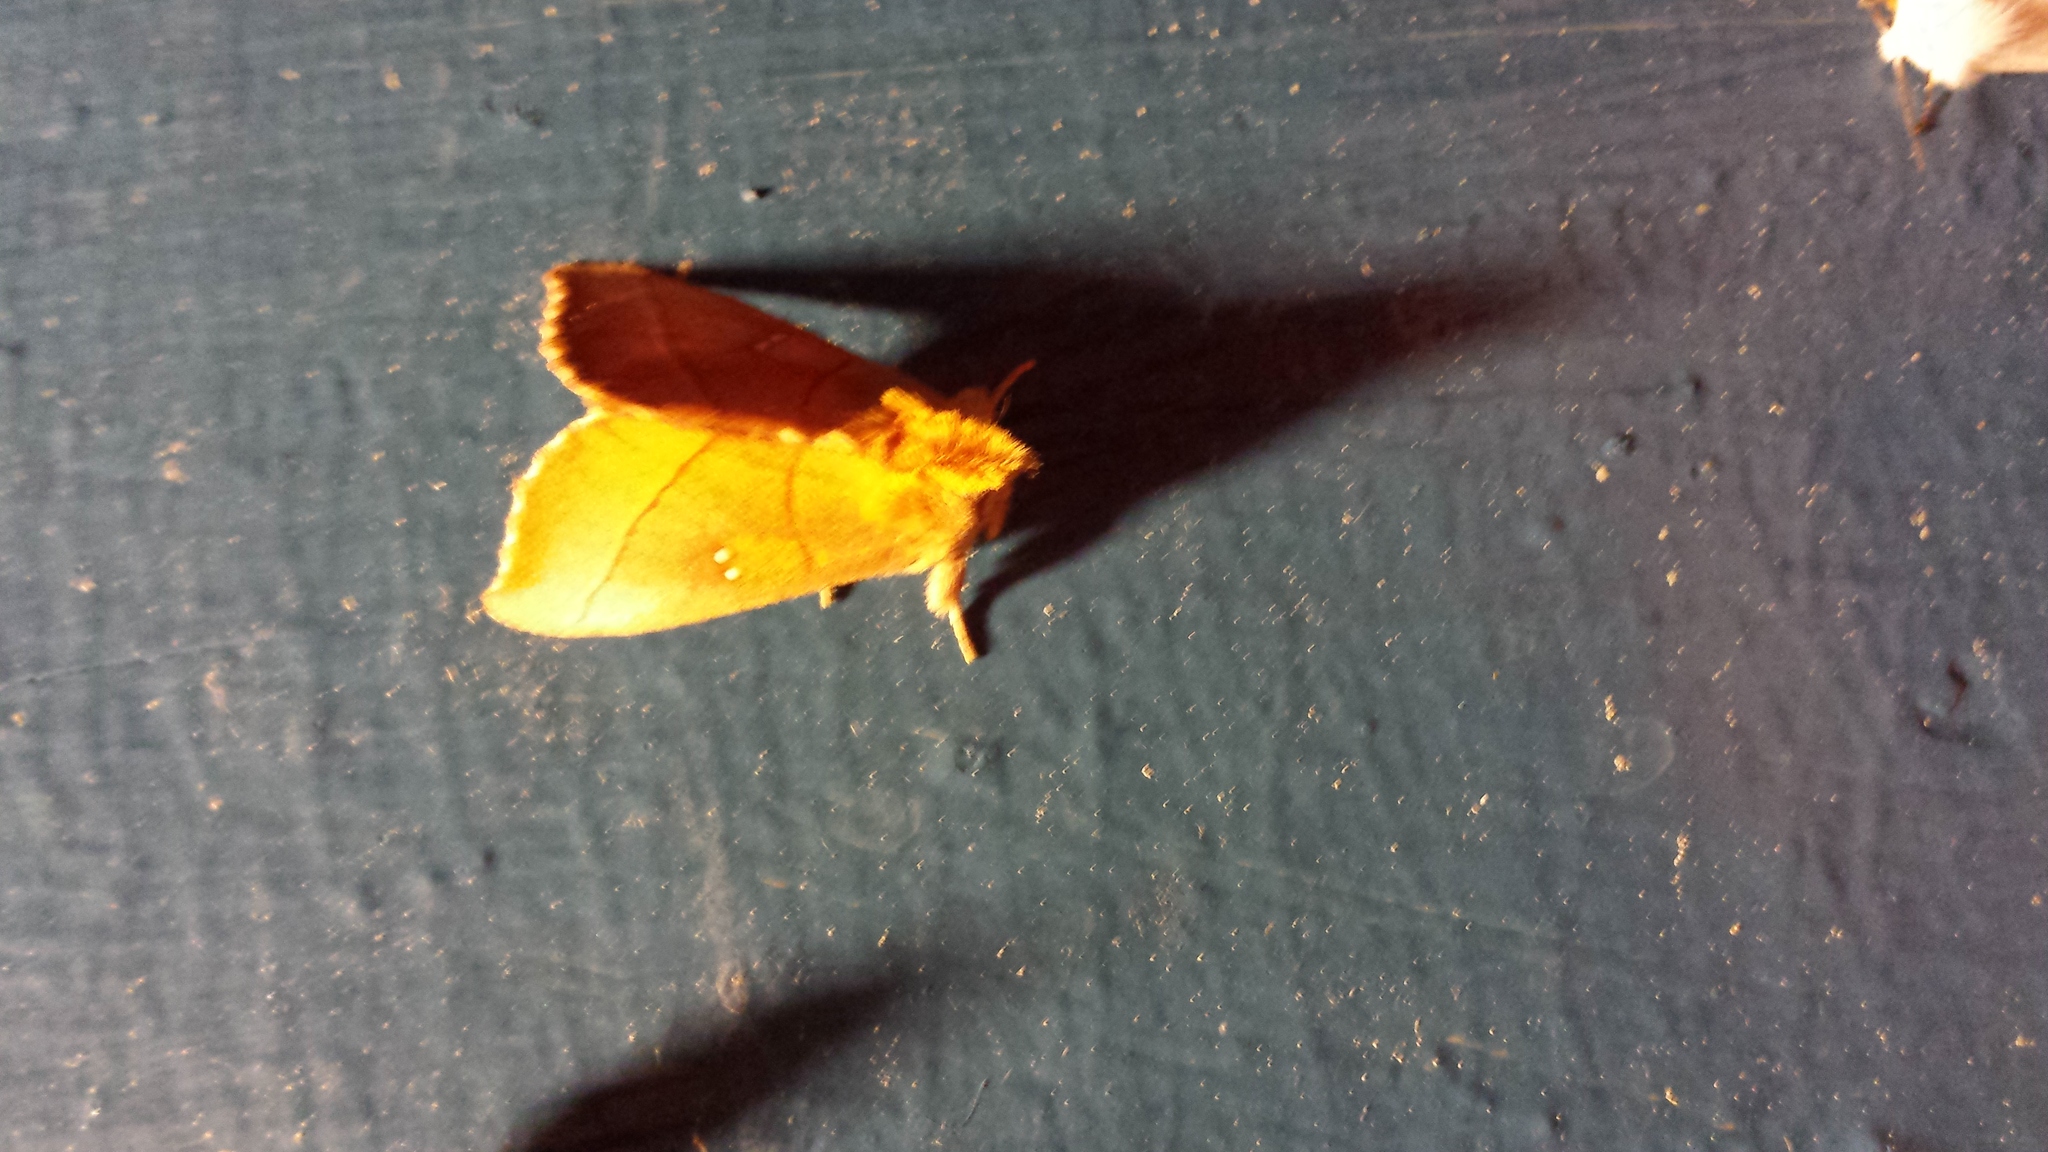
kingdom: Animalia
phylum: Arthropoda
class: Insecta
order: Lepidoptera
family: Notodontidae
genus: Nadata
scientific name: Nadata gibbosa
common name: White-dotted prominent
